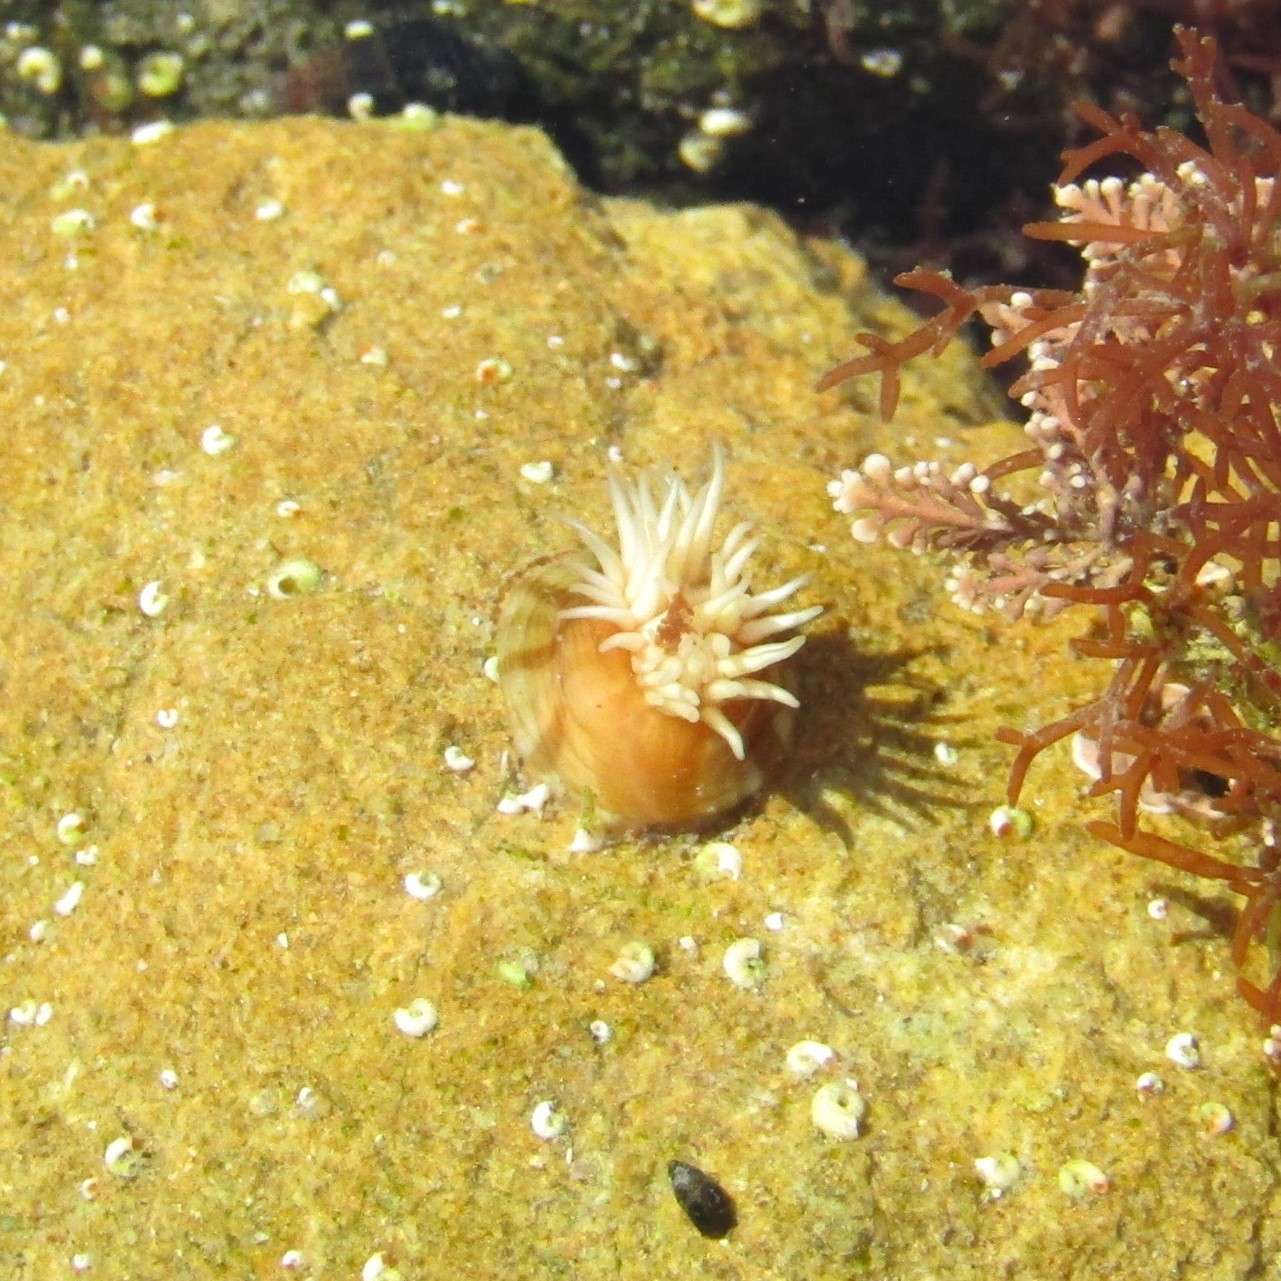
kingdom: Animalia
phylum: Cnidaria
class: Anthozoa
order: Actiniaria
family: Sagartiidae
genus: Anthothoe
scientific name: Anthothoe albocincta
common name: Orange striped anemone
